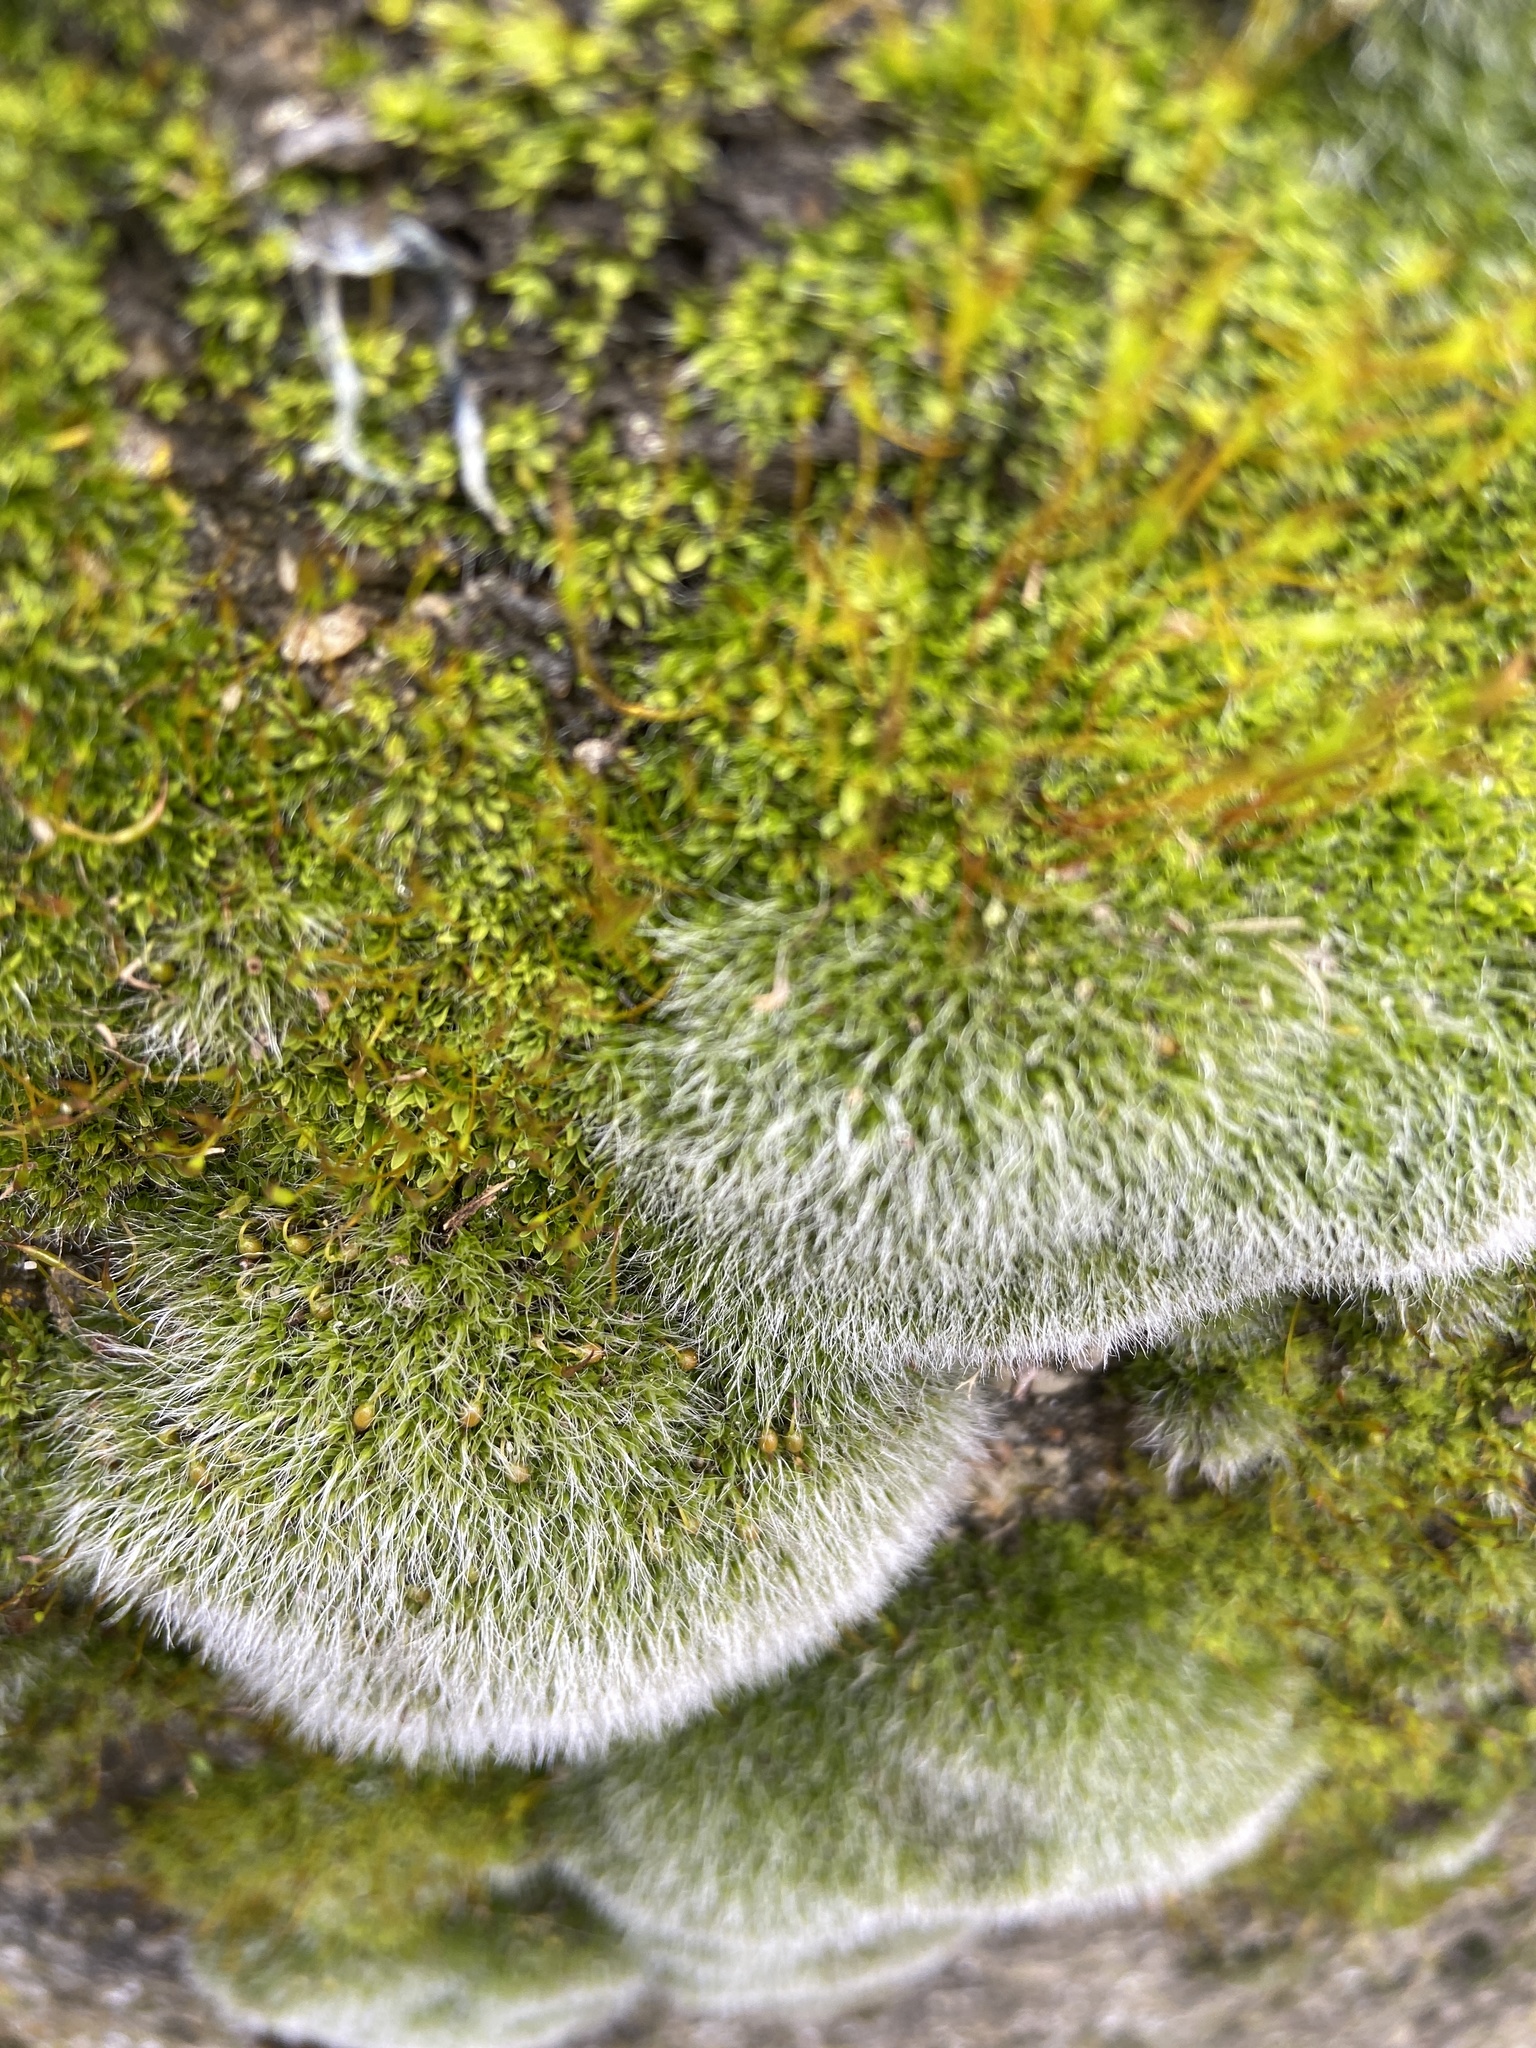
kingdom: Plantae
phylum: Bryophyta
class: Bryopsida
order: Pottiales
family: Pottiaceae
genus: Tortula
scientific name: Tortula muralis
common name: Wall screw-moss
